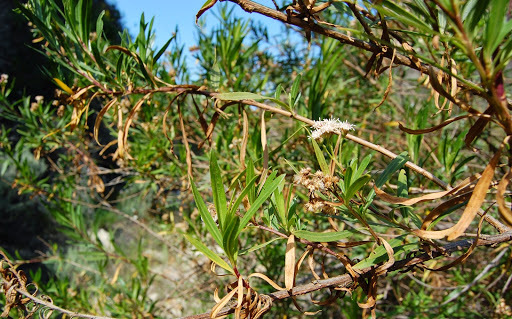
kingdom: Plantae
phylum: Tracheophyta
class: Magnoliopsida
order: Asterales
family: Asteraceae
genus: Baccharis
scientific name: Baccharis salicifolia
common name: Sticky baccharis
